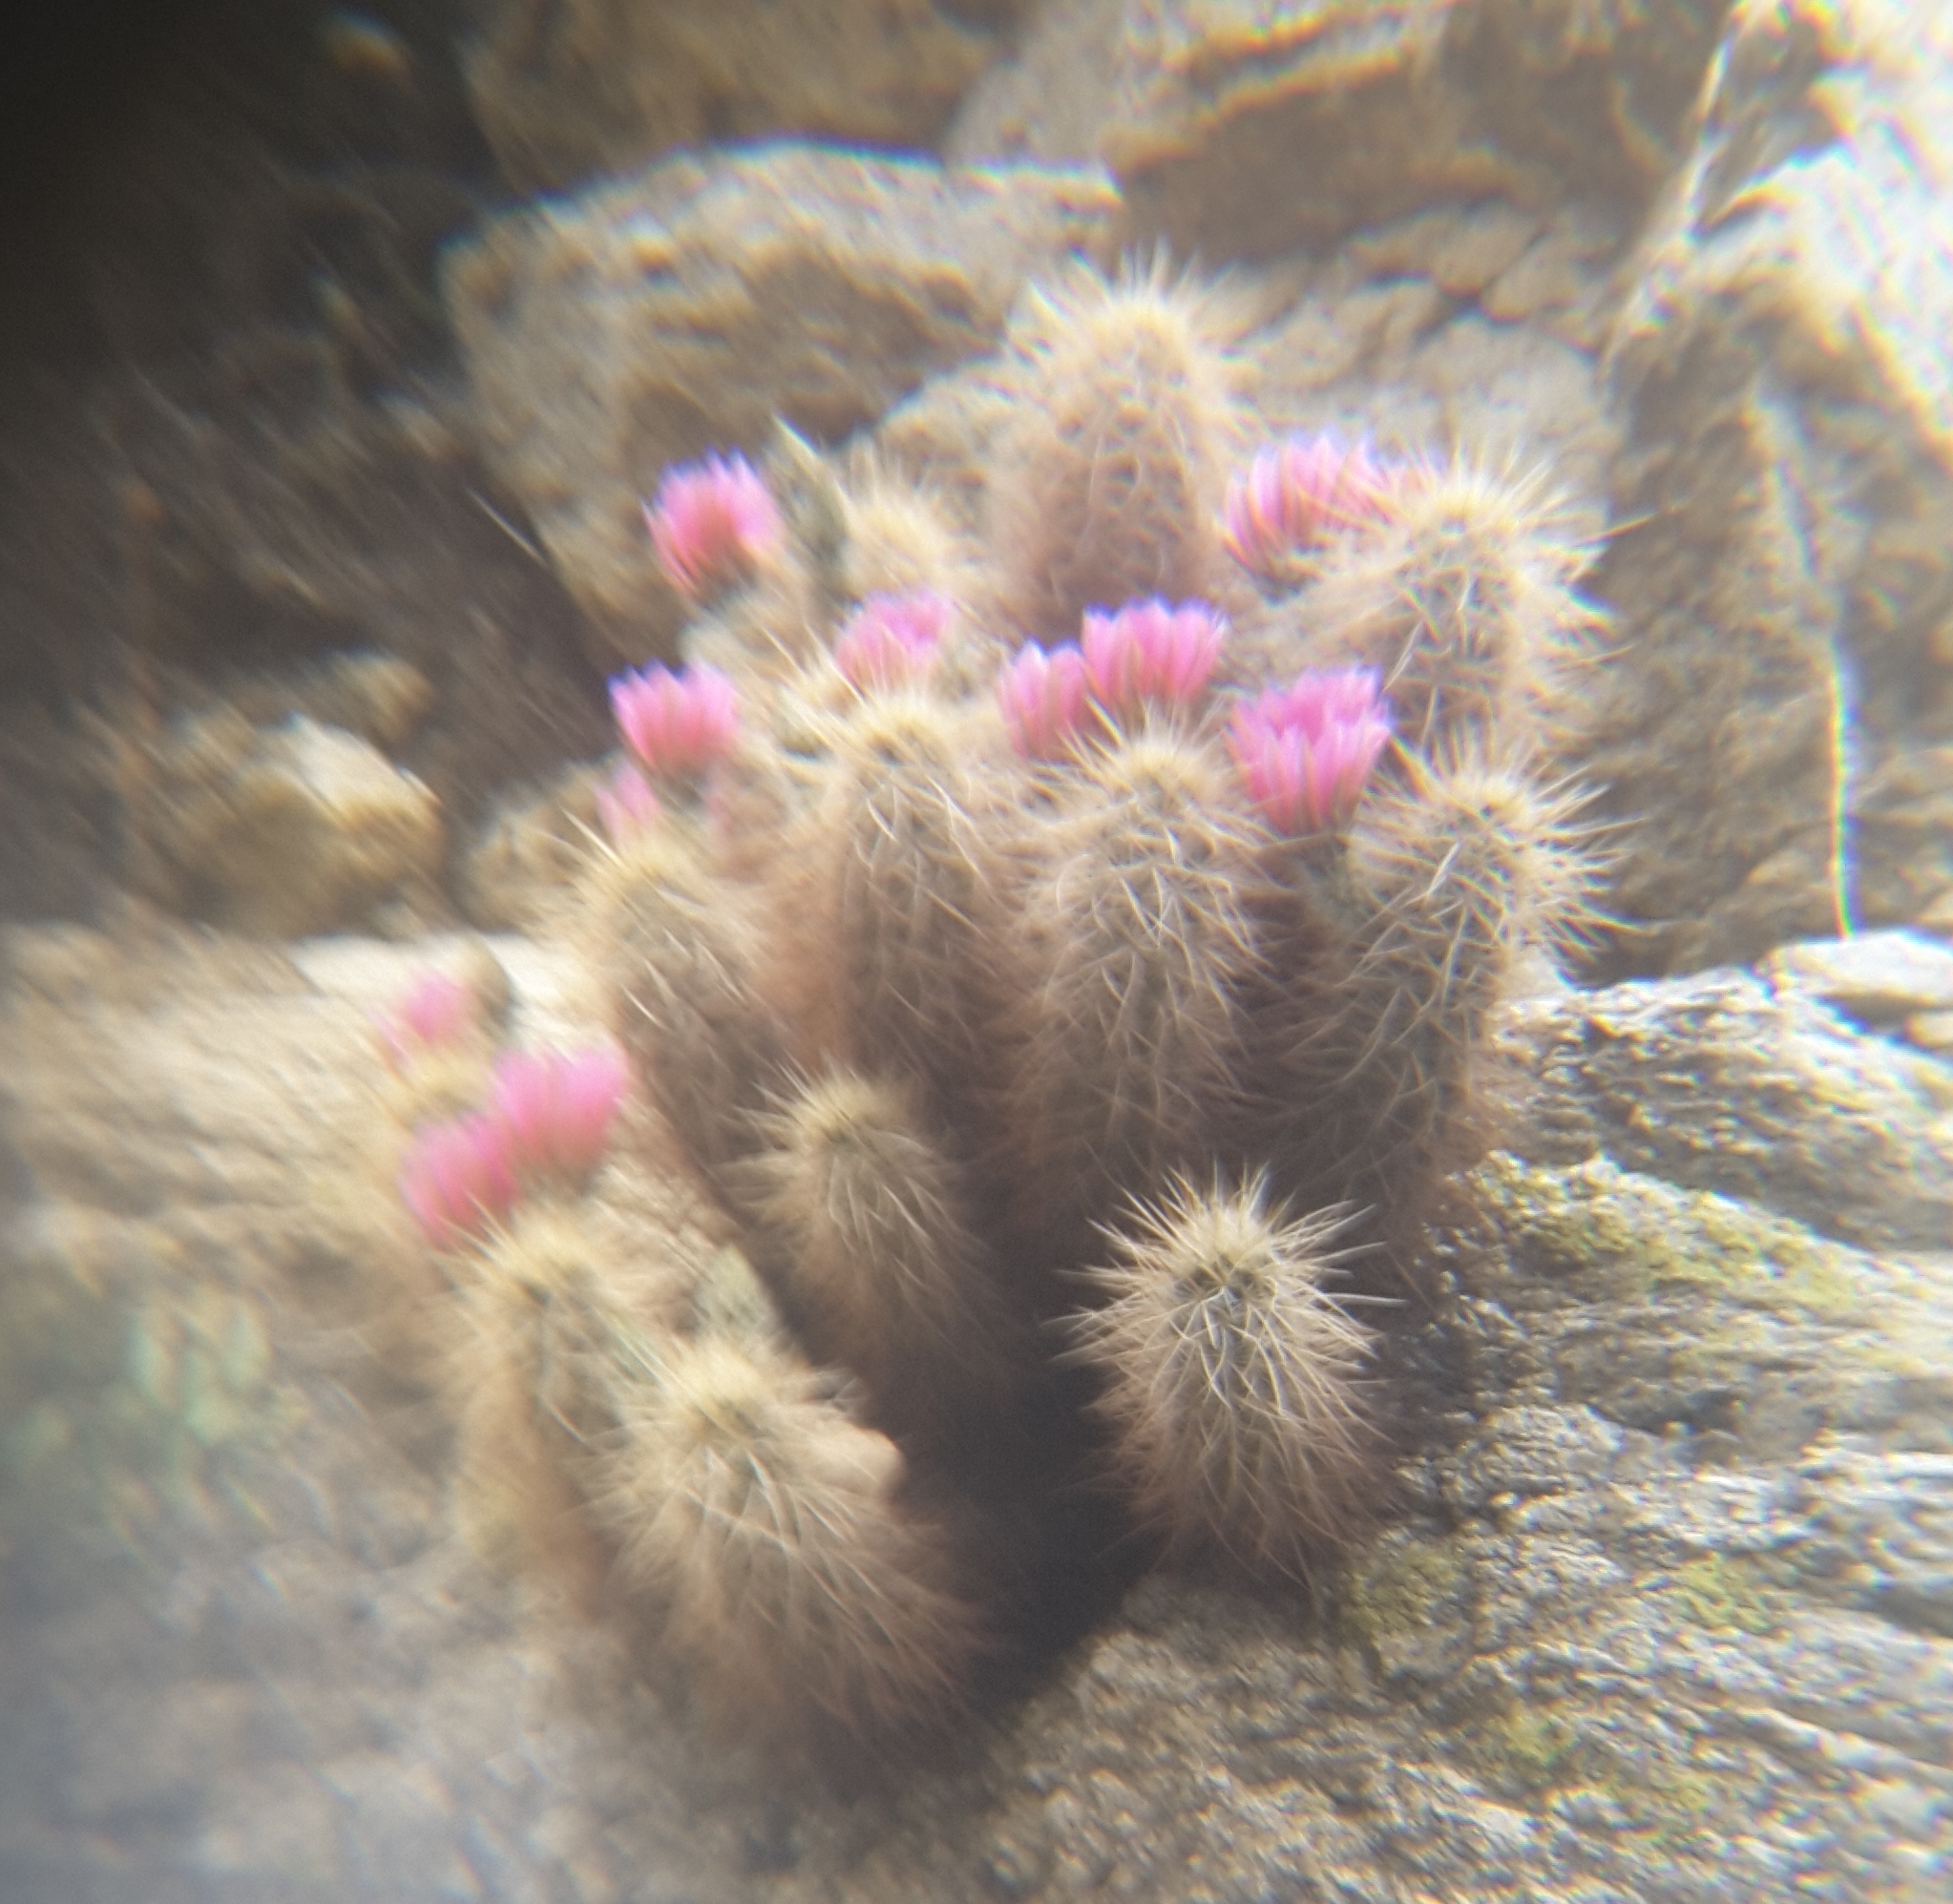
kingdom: Plantae
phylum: Tracheophyta
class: Magnoliopsida
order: Caryophyllales
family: Cactaceae
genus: Echinocereus
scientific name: Echinocereus engelmannii
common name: Engelmann's hedgehog cactus
